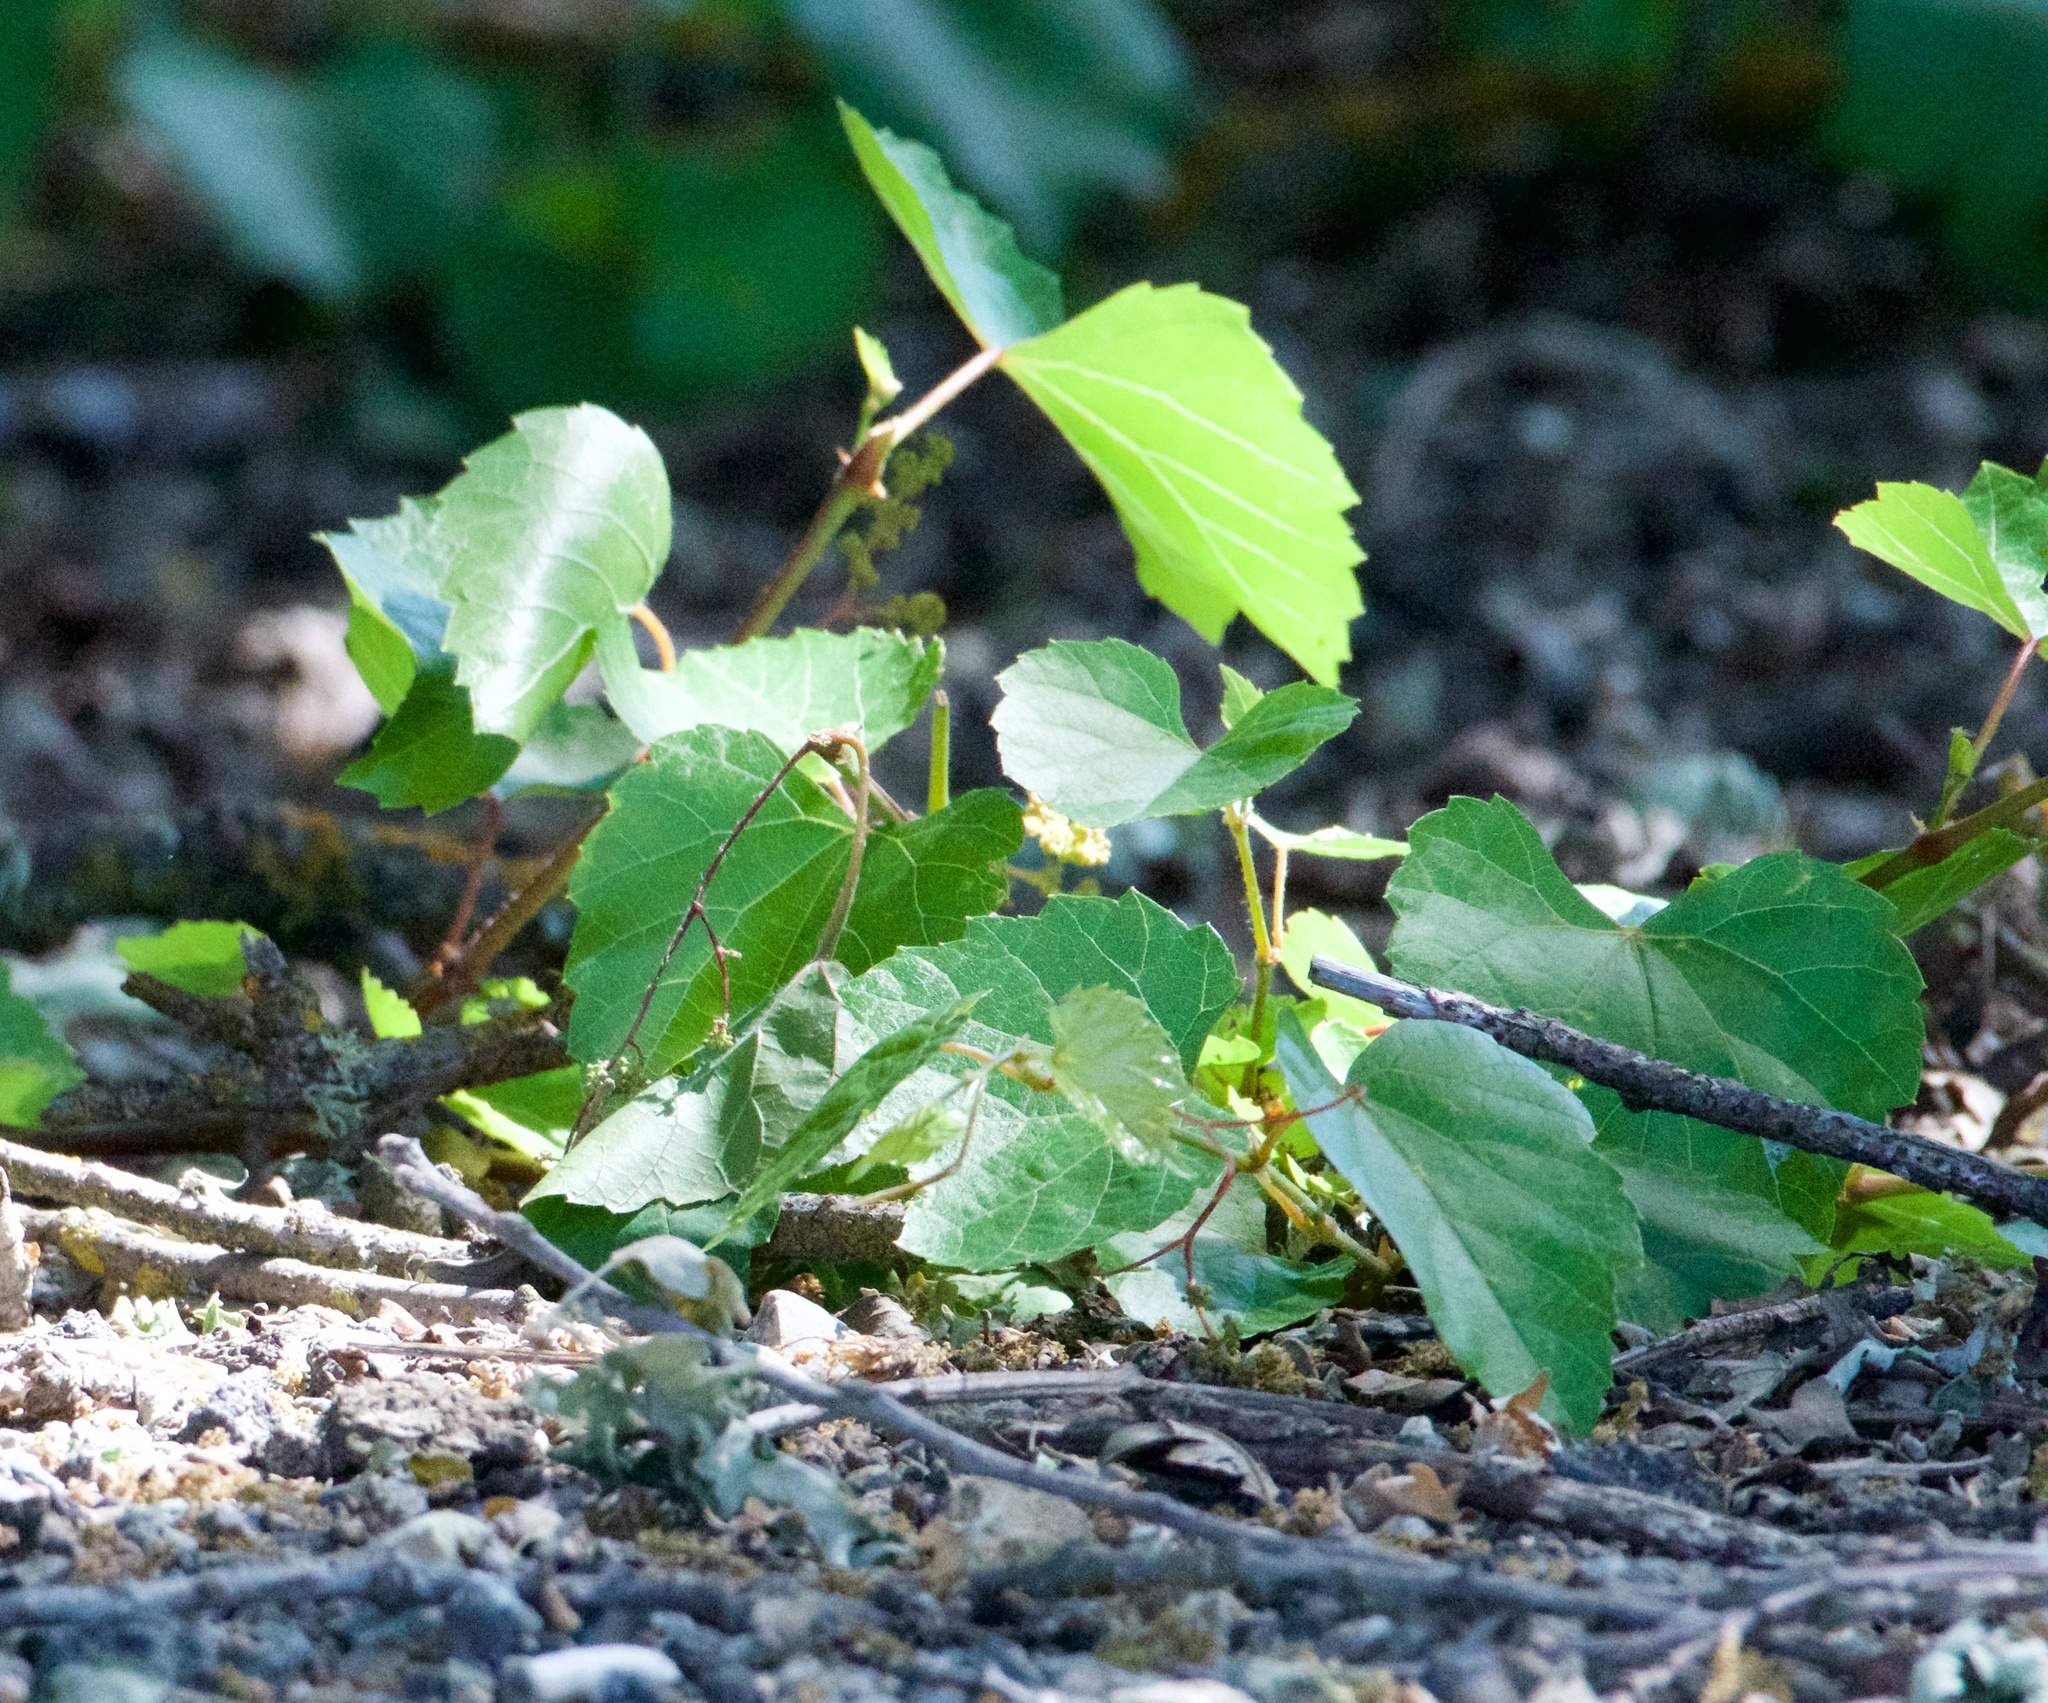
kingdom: Plantae
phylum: Tracheophyta
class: Magnoliopsida
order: Vitales
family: Vitaceae
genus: Vitis
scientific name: Vitis californica
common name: California wild grape
